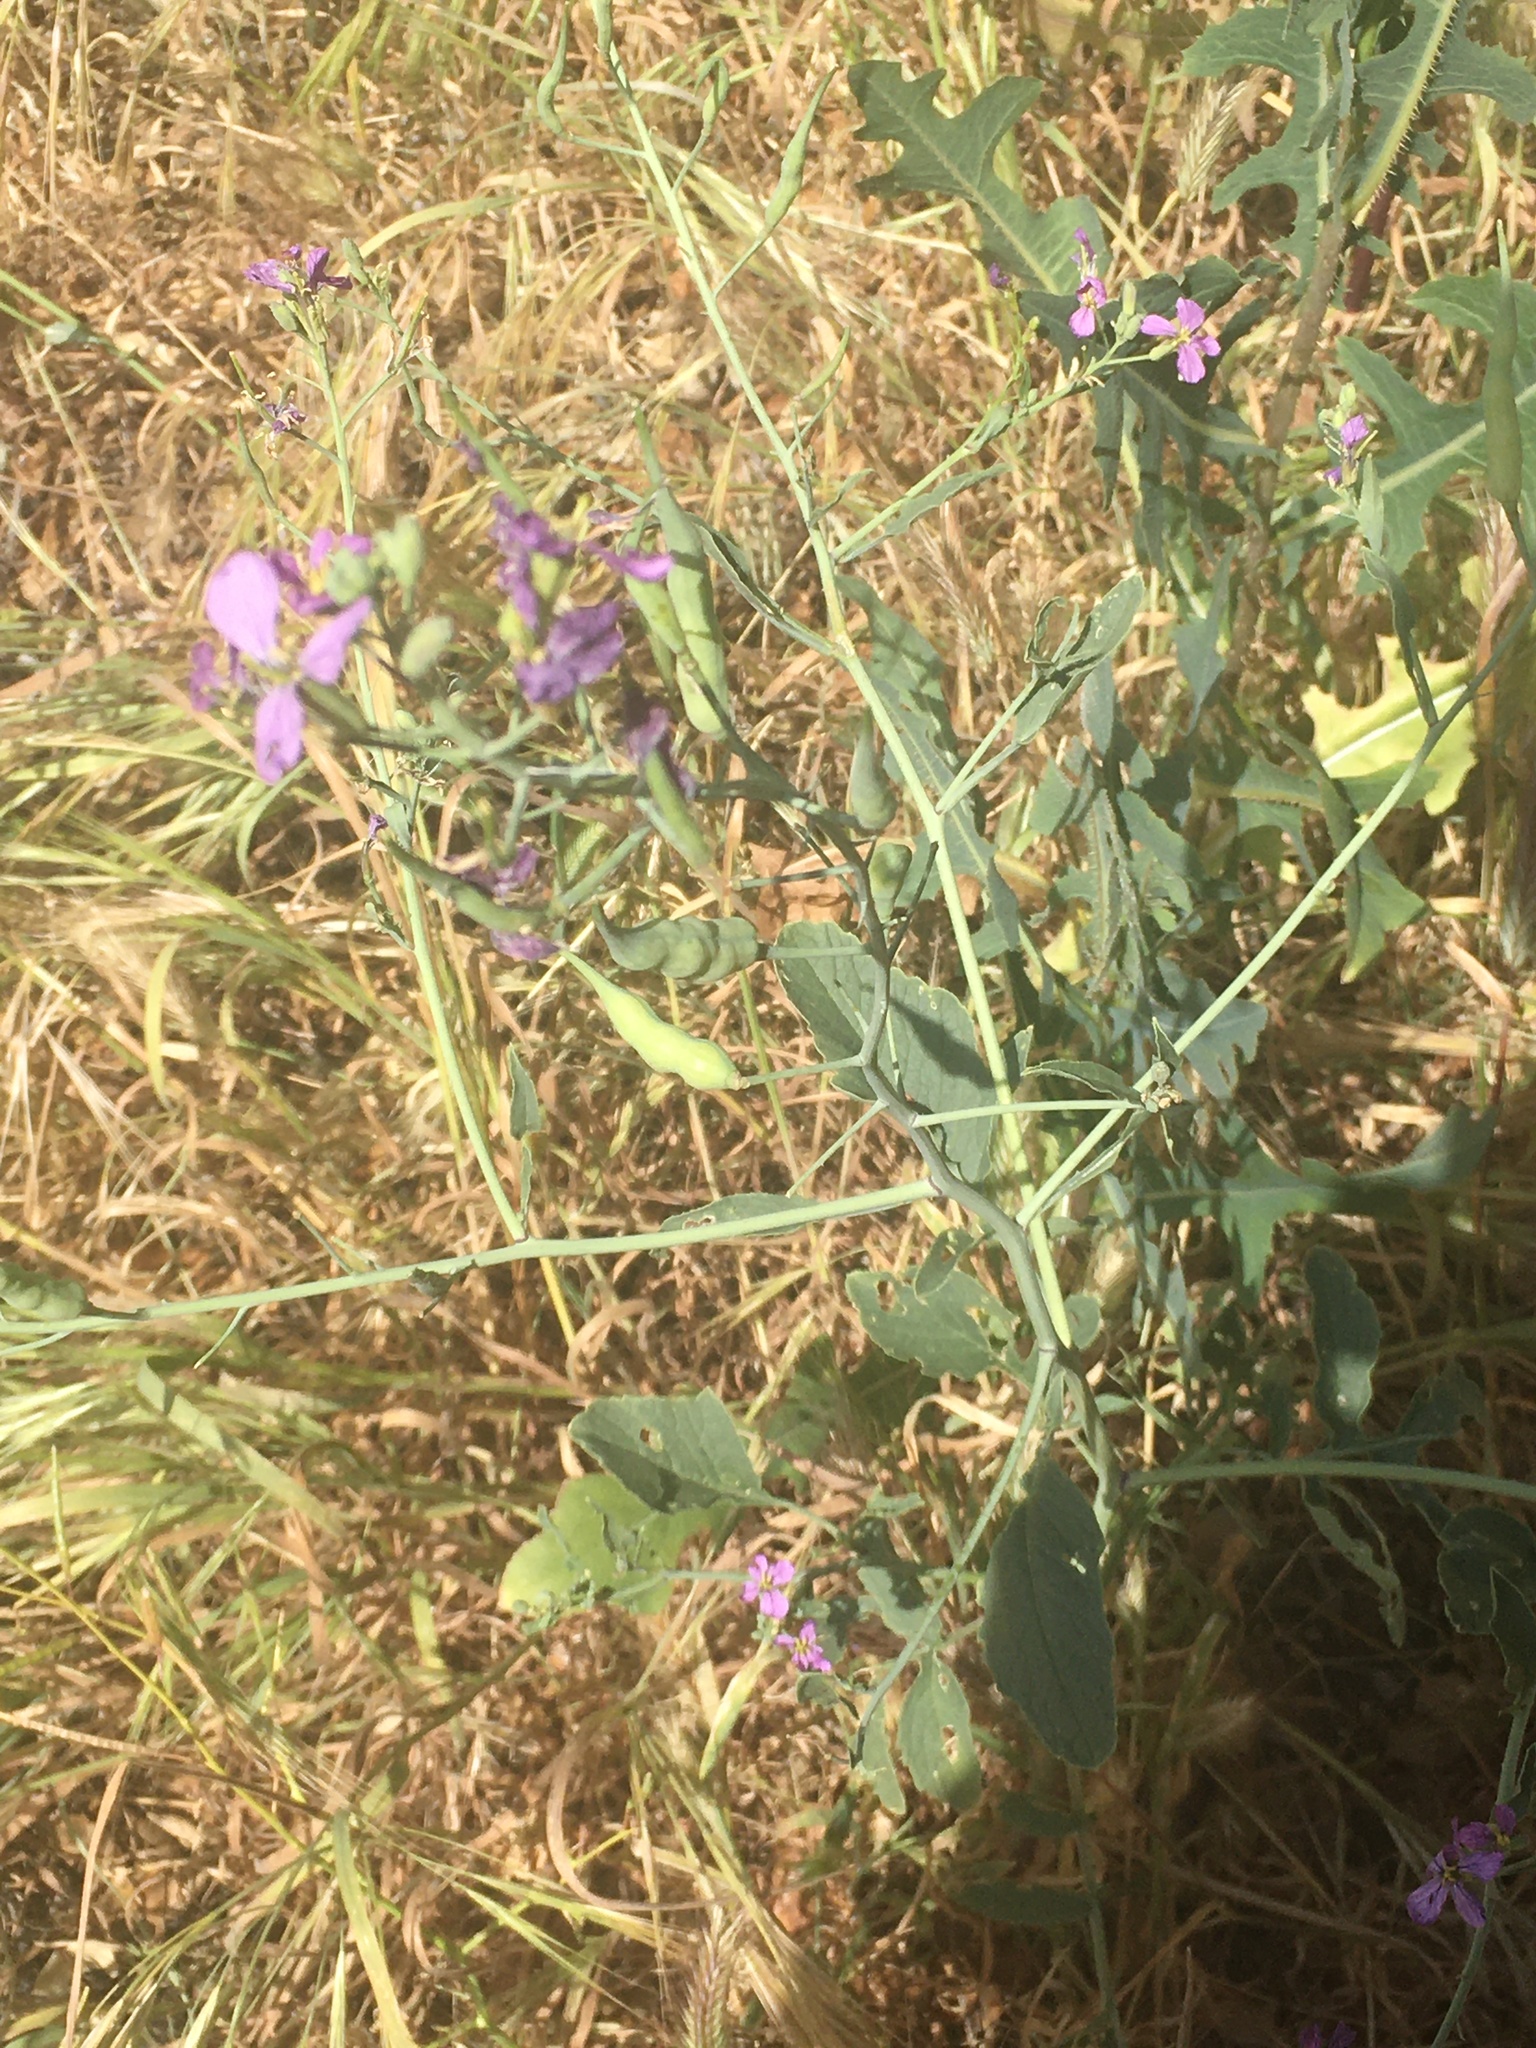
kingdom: Plantae
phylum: Tracheophyta
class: Magnoliopsida
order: Brassicales
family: Brassicaceae
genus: Raphanus
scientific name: Raphanus sativus
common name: Cultivated radish
